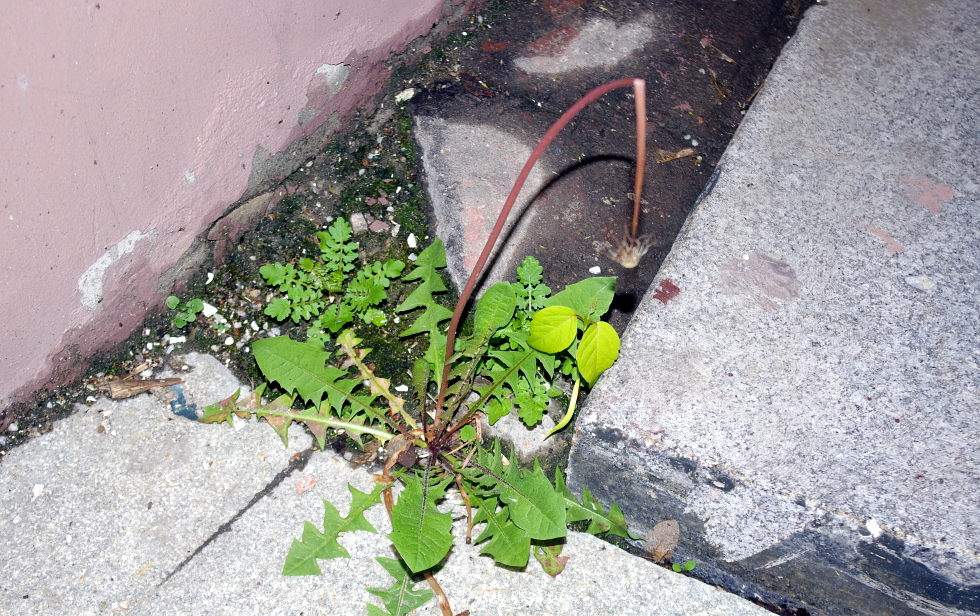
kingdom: Plantae
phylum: Tracheophyta
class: Magnoliopsida
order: Asterales
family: Asteraceae
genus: Taraxacum
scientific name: Taraxacum officinale
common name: Common dandelion
